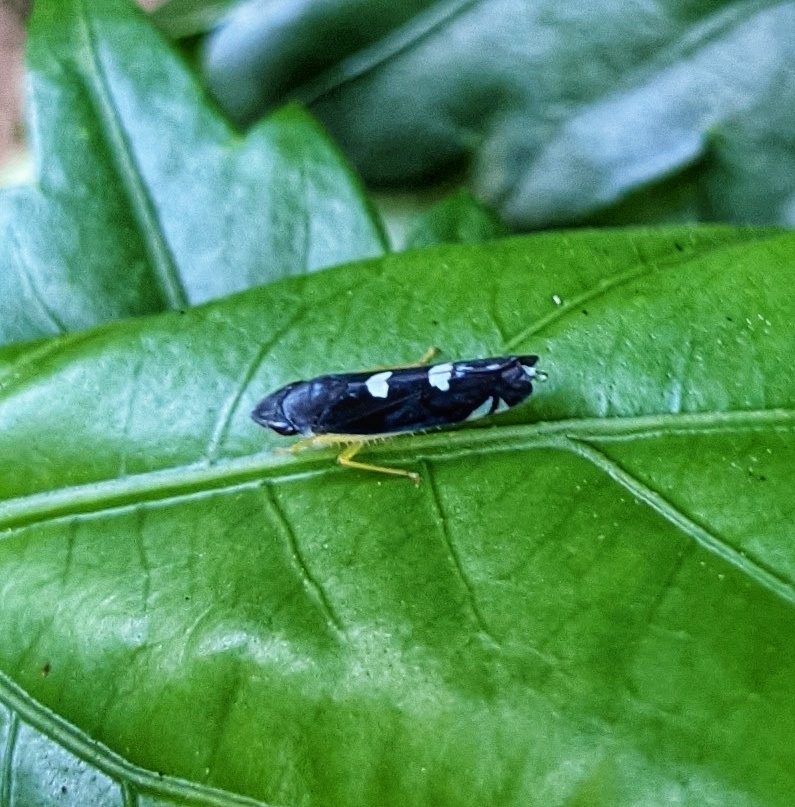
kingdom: Animalia
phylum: Arthropoda
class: Insecta
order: Hemiptera
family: Cicadellidae
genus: Pachitea
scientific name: Pachitea subflava
